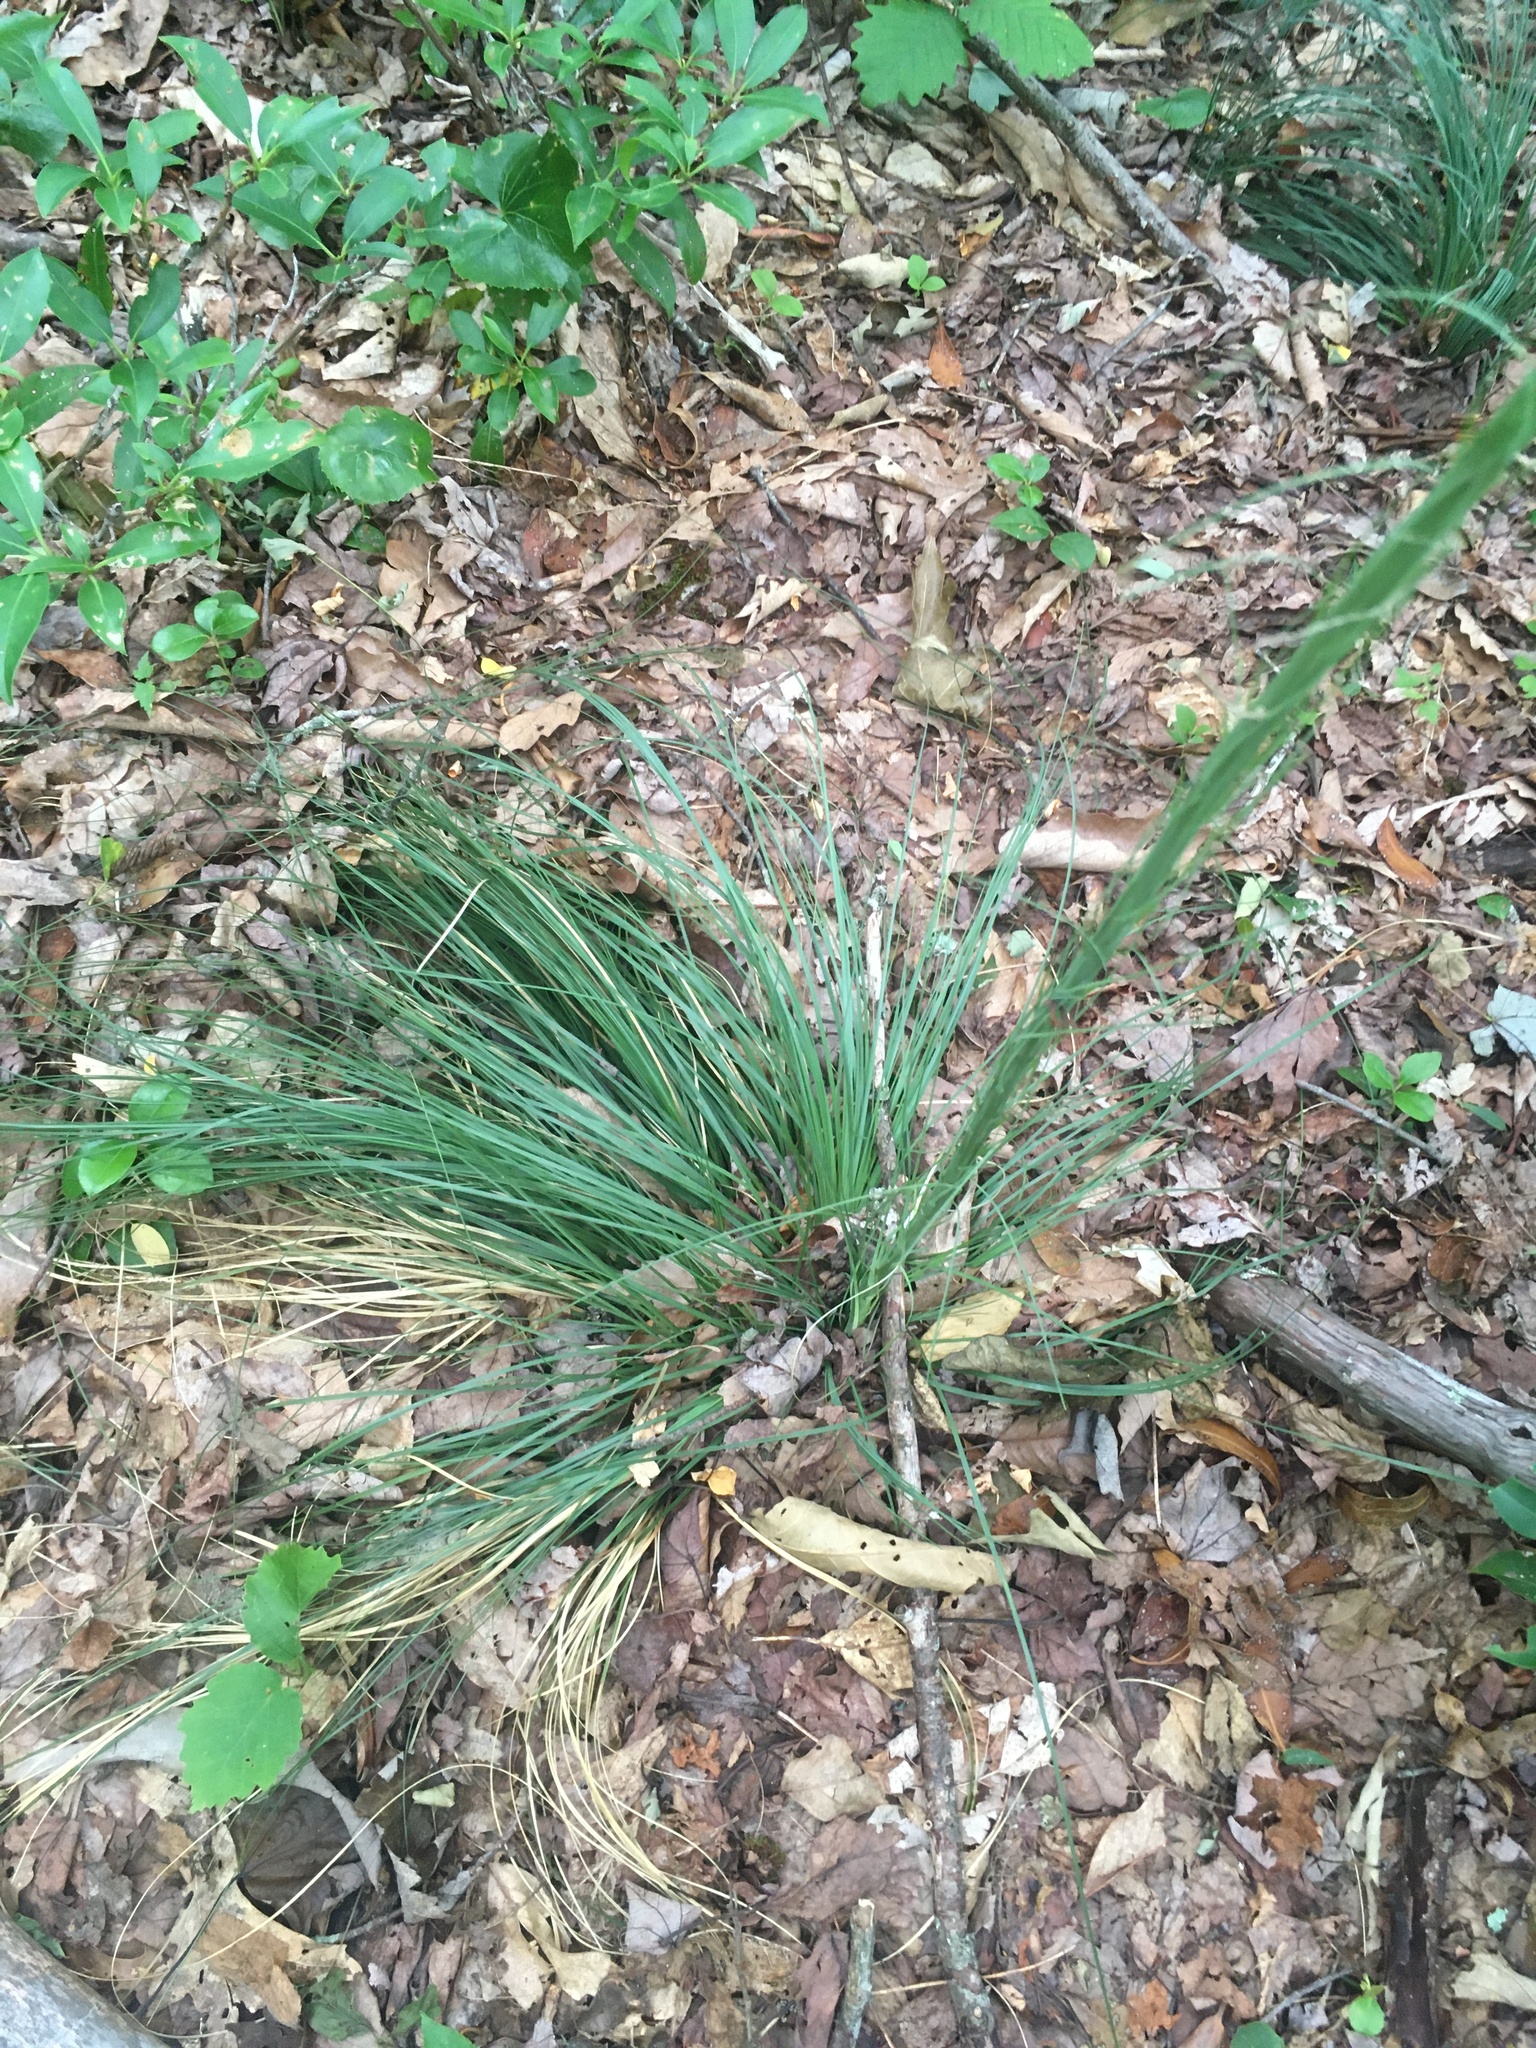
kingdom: Plantae
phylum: Tracheophyta
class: Liliopsida
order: Liliales
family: Melanthiaceae
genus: Xerophyllum
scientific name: Xerophyllum asphodeloides
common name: Mountain-asphodel
